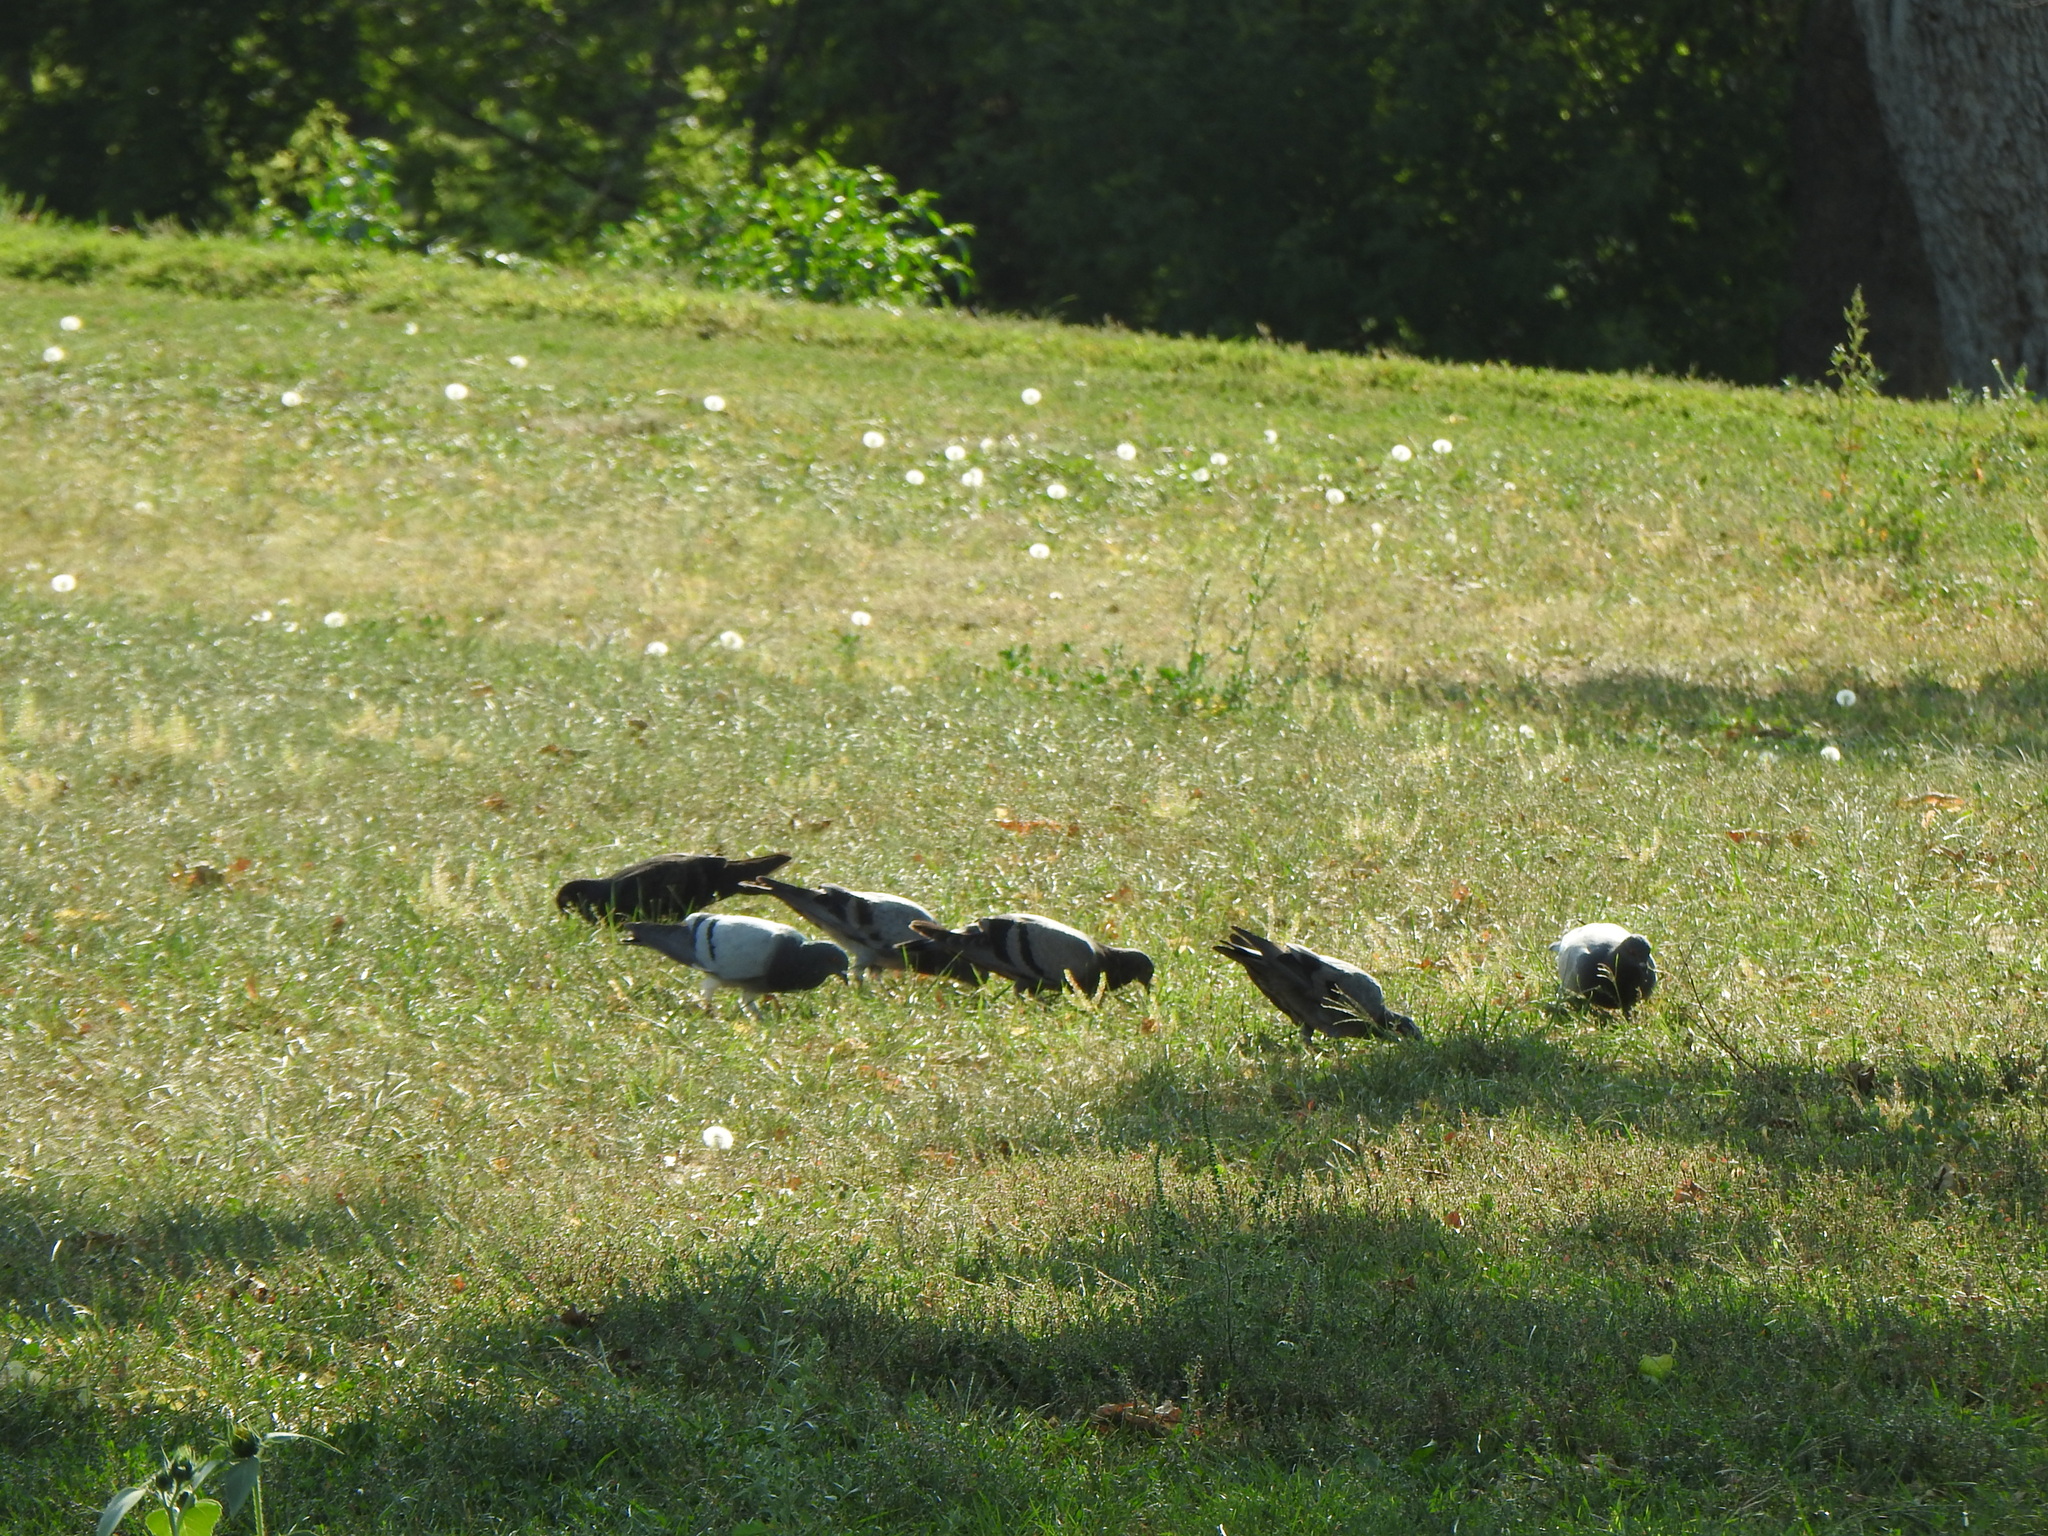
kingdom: Animalia
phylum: Chordata
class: Aves
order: Columbiformes
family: Columbidae
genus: Columba
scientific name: Columba livia
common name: Rock pigeon
